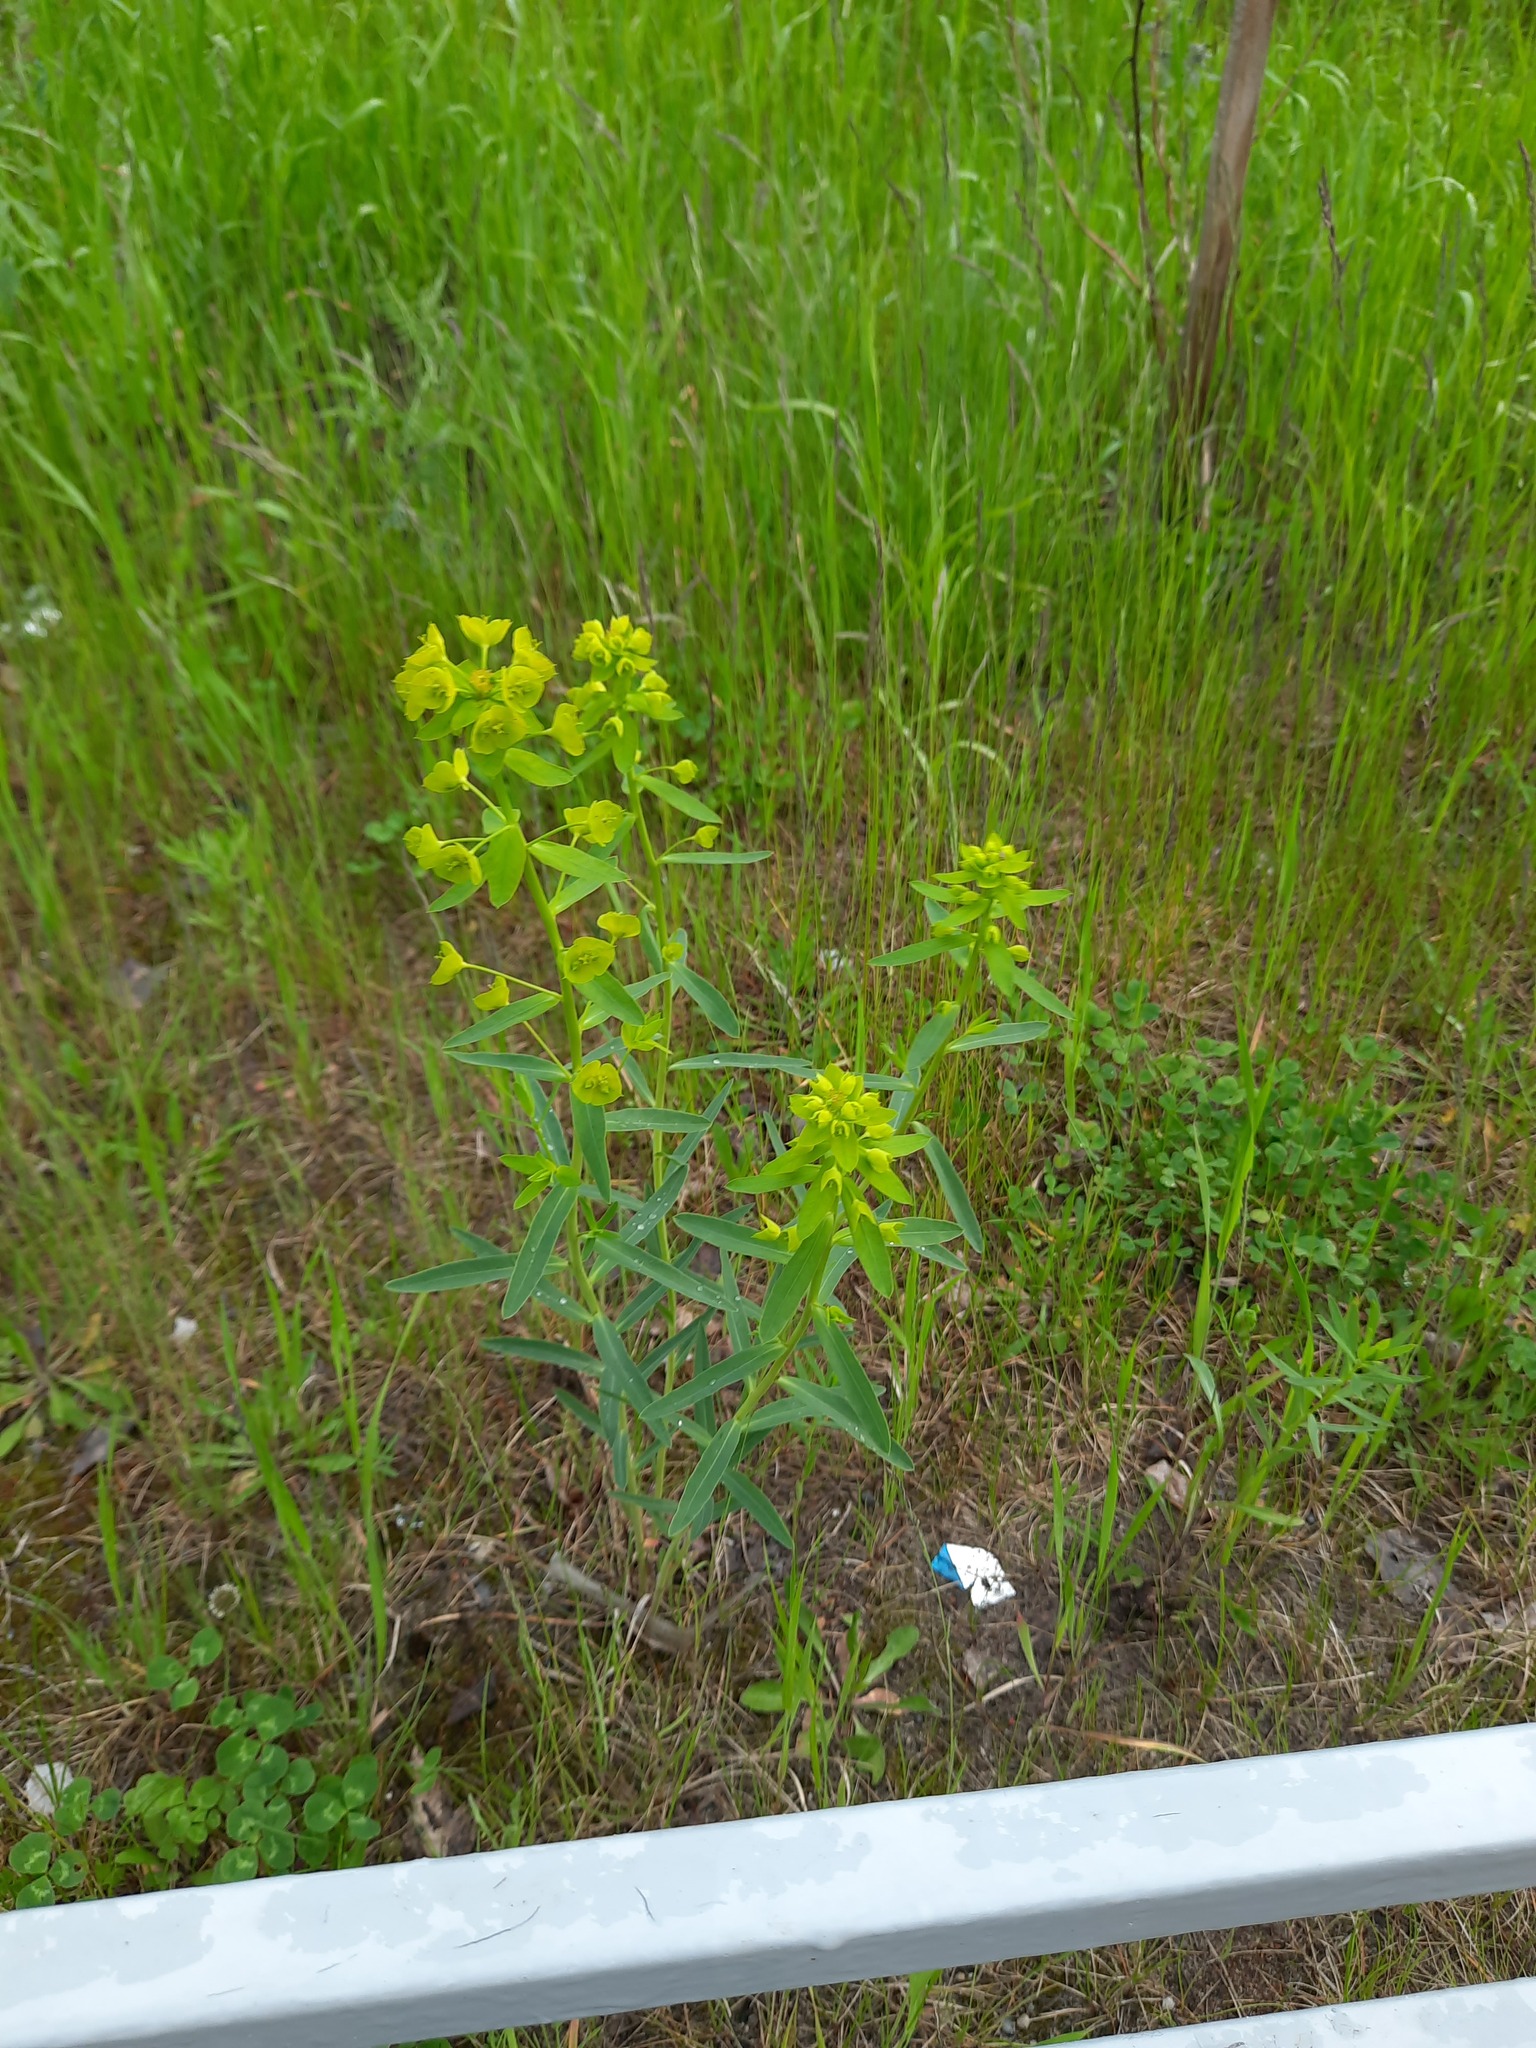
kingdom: Plantae
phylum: Tracheophyta
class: Magnoliopsida
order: Malpighiales
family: Euphorbiaceae
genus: Euphorbia
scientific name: Euphorbia virgata
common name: Leafy spurge
